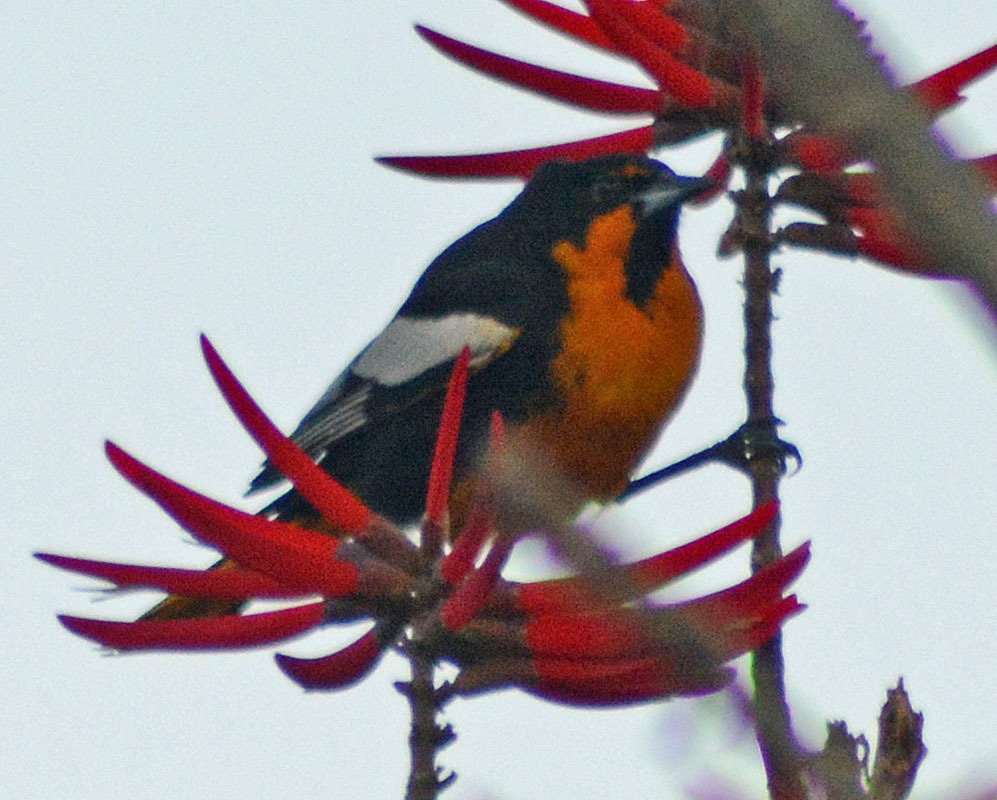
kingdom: Animalia
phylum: Chordata
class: Aves
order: Passeriformes
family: Icteridae
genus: Icterus
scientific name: Icterus abeillei
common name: Black-backed oriole
